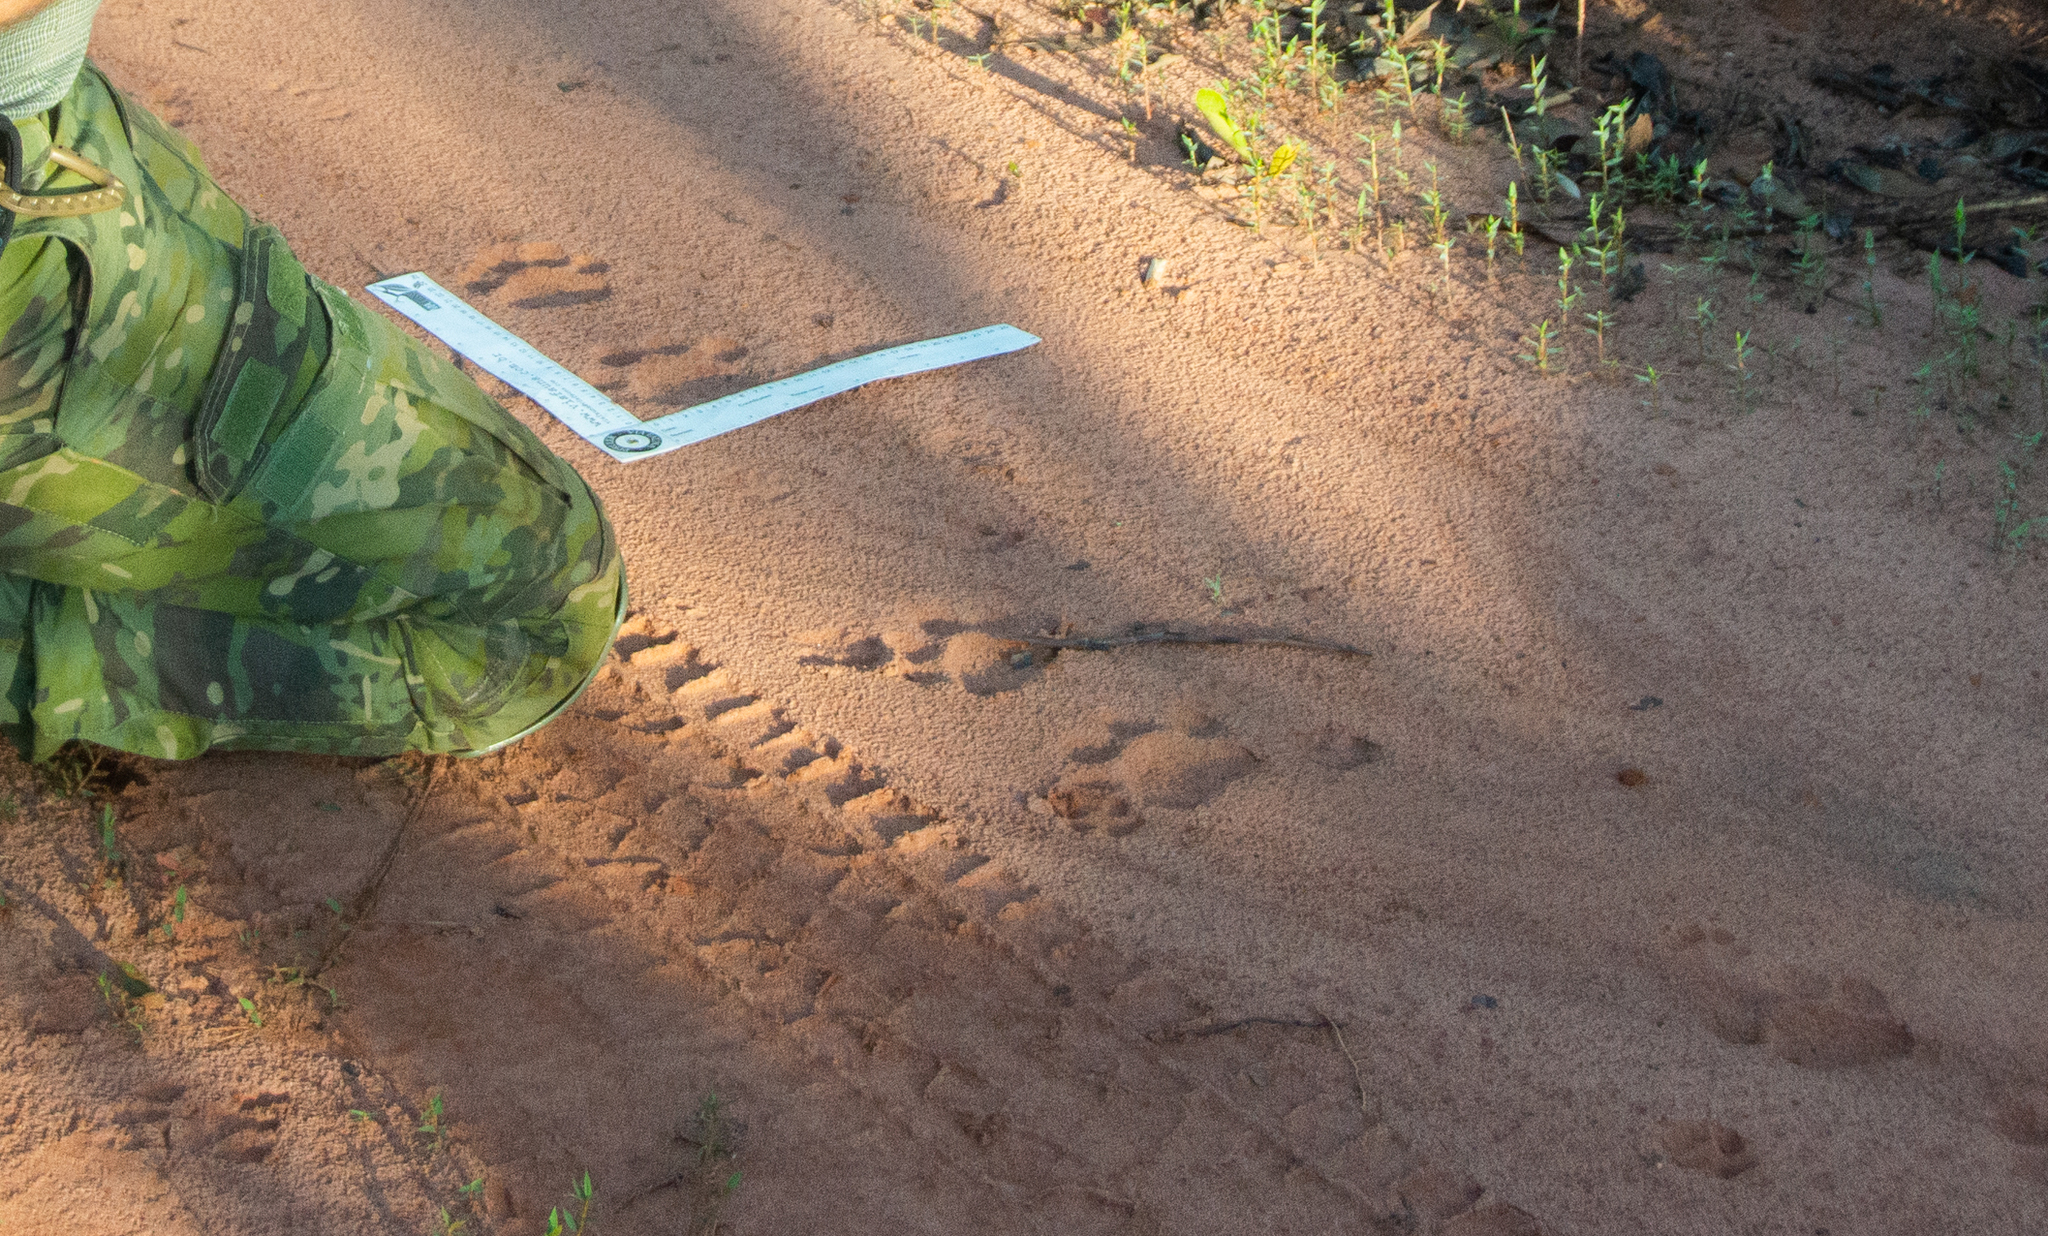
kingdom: Animalia
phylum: Chordata
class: Mammalia
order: Carnivora
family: Felidae
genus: Panthera
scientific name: Panthera onca
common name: Jaguar
